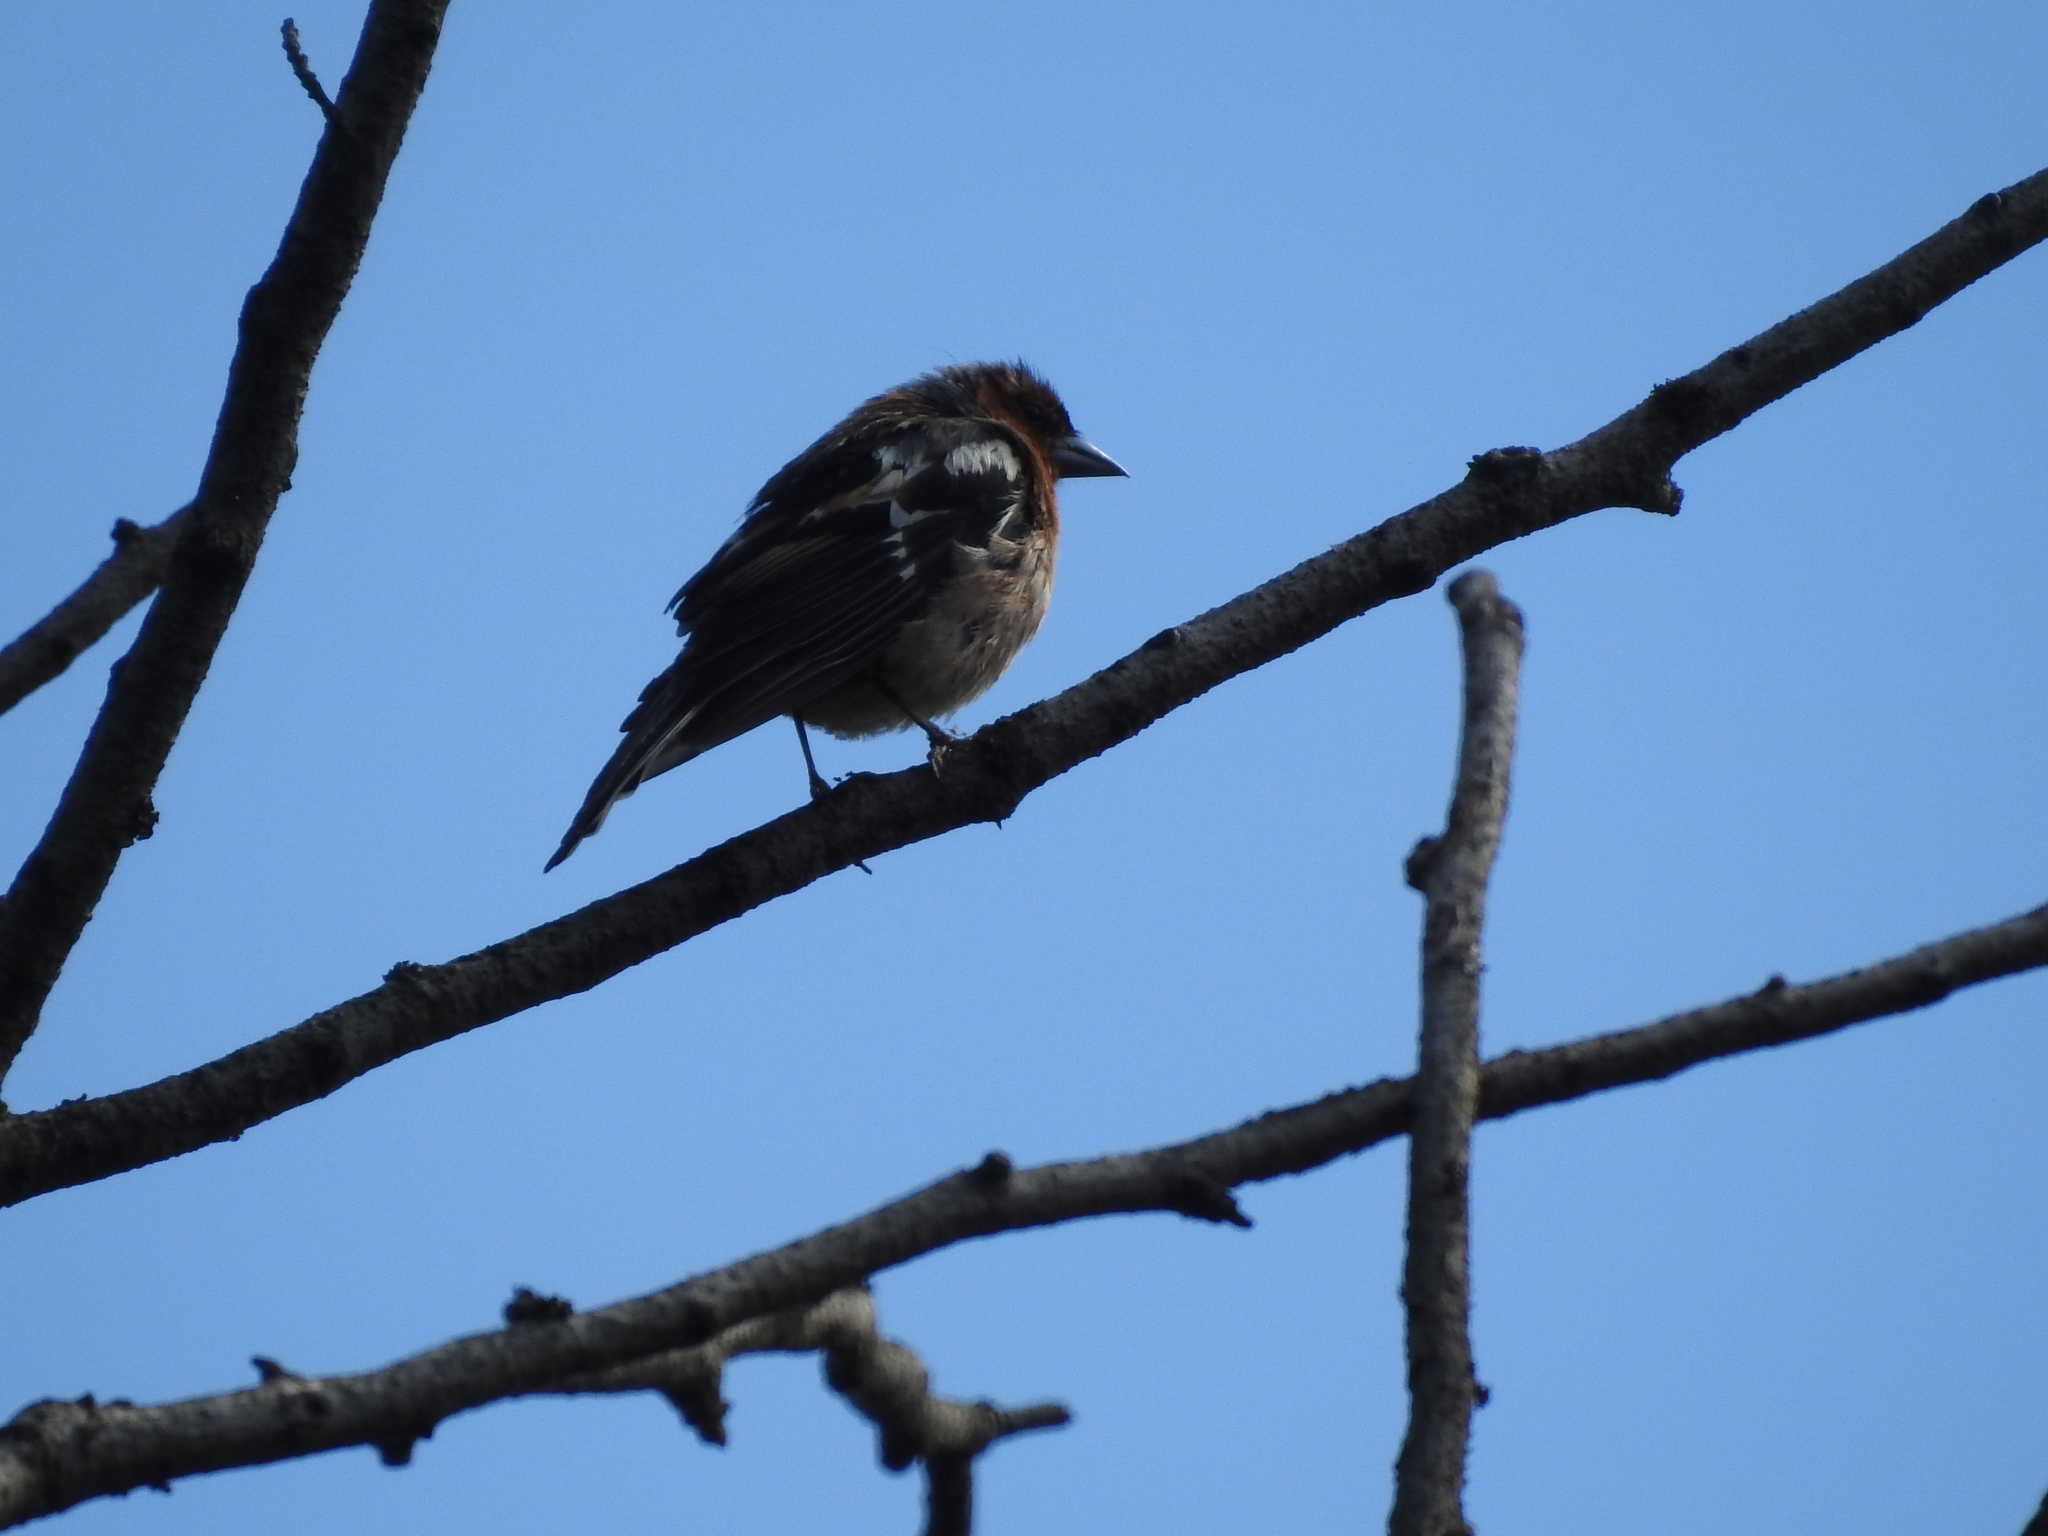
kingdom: Animalia
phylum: Chordata
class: Aves
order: Passeriformes
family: Fringillidae
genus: Fringilla
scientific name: Fringilla coelebs
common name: Common chaffinch
